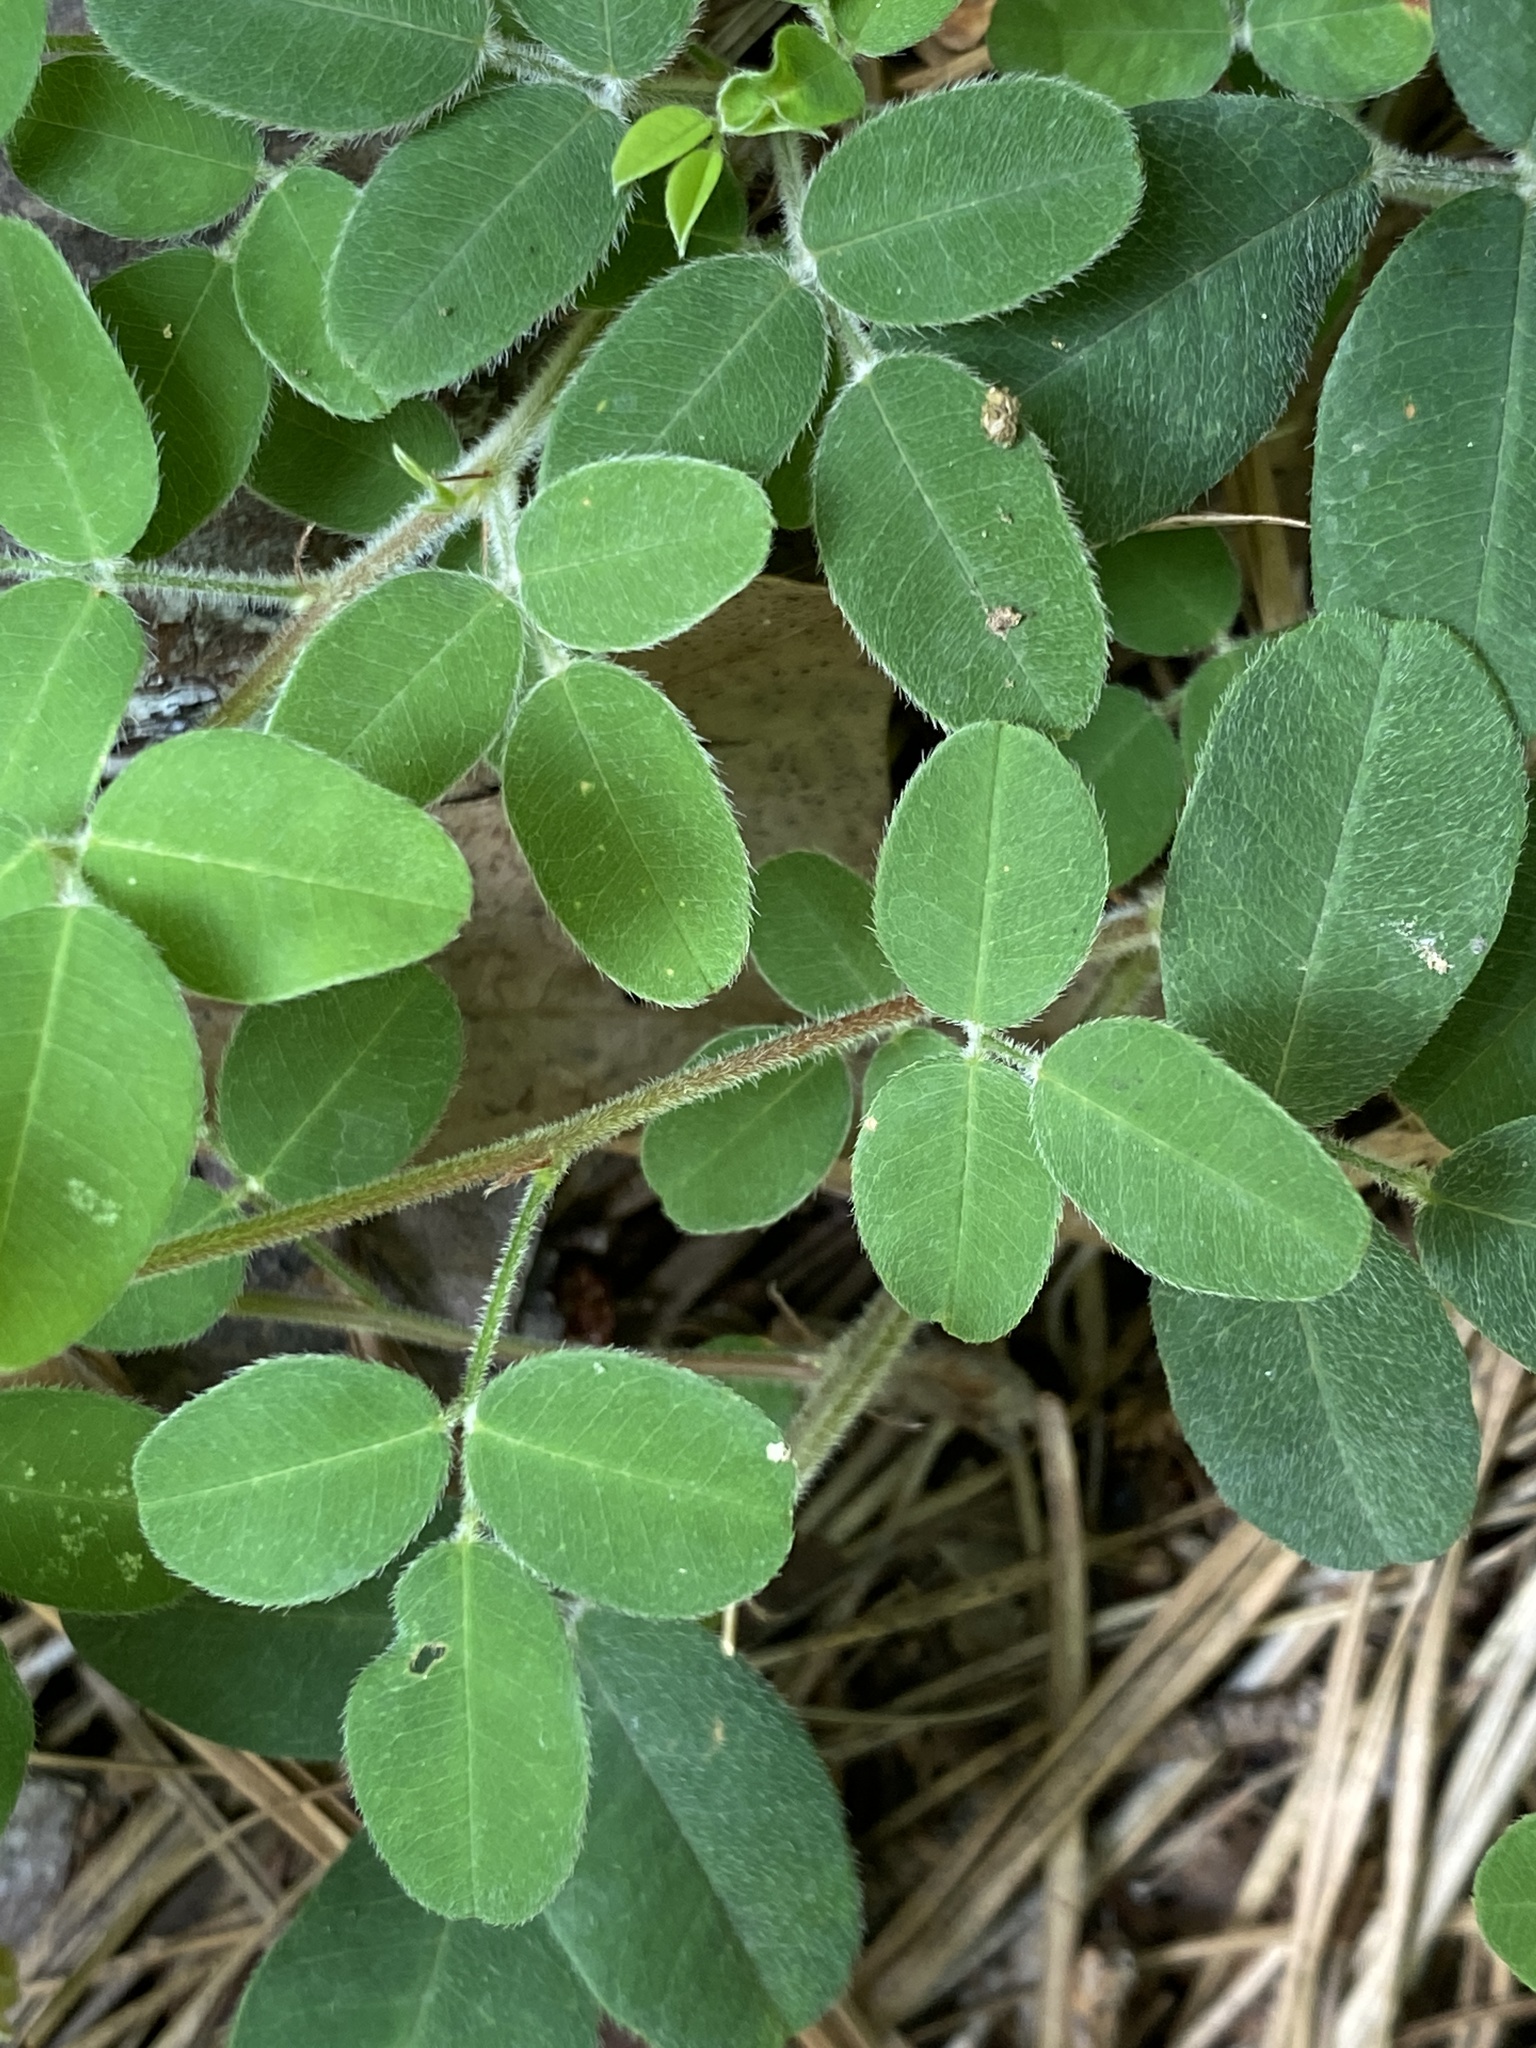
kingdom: Plantae
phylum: Tracheophyta
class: Magnoliopsida
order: Fabales
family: Fabaceae
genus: Lespedeza
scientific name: Lespedeza procumbens
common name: Downy trailing bush-clover
